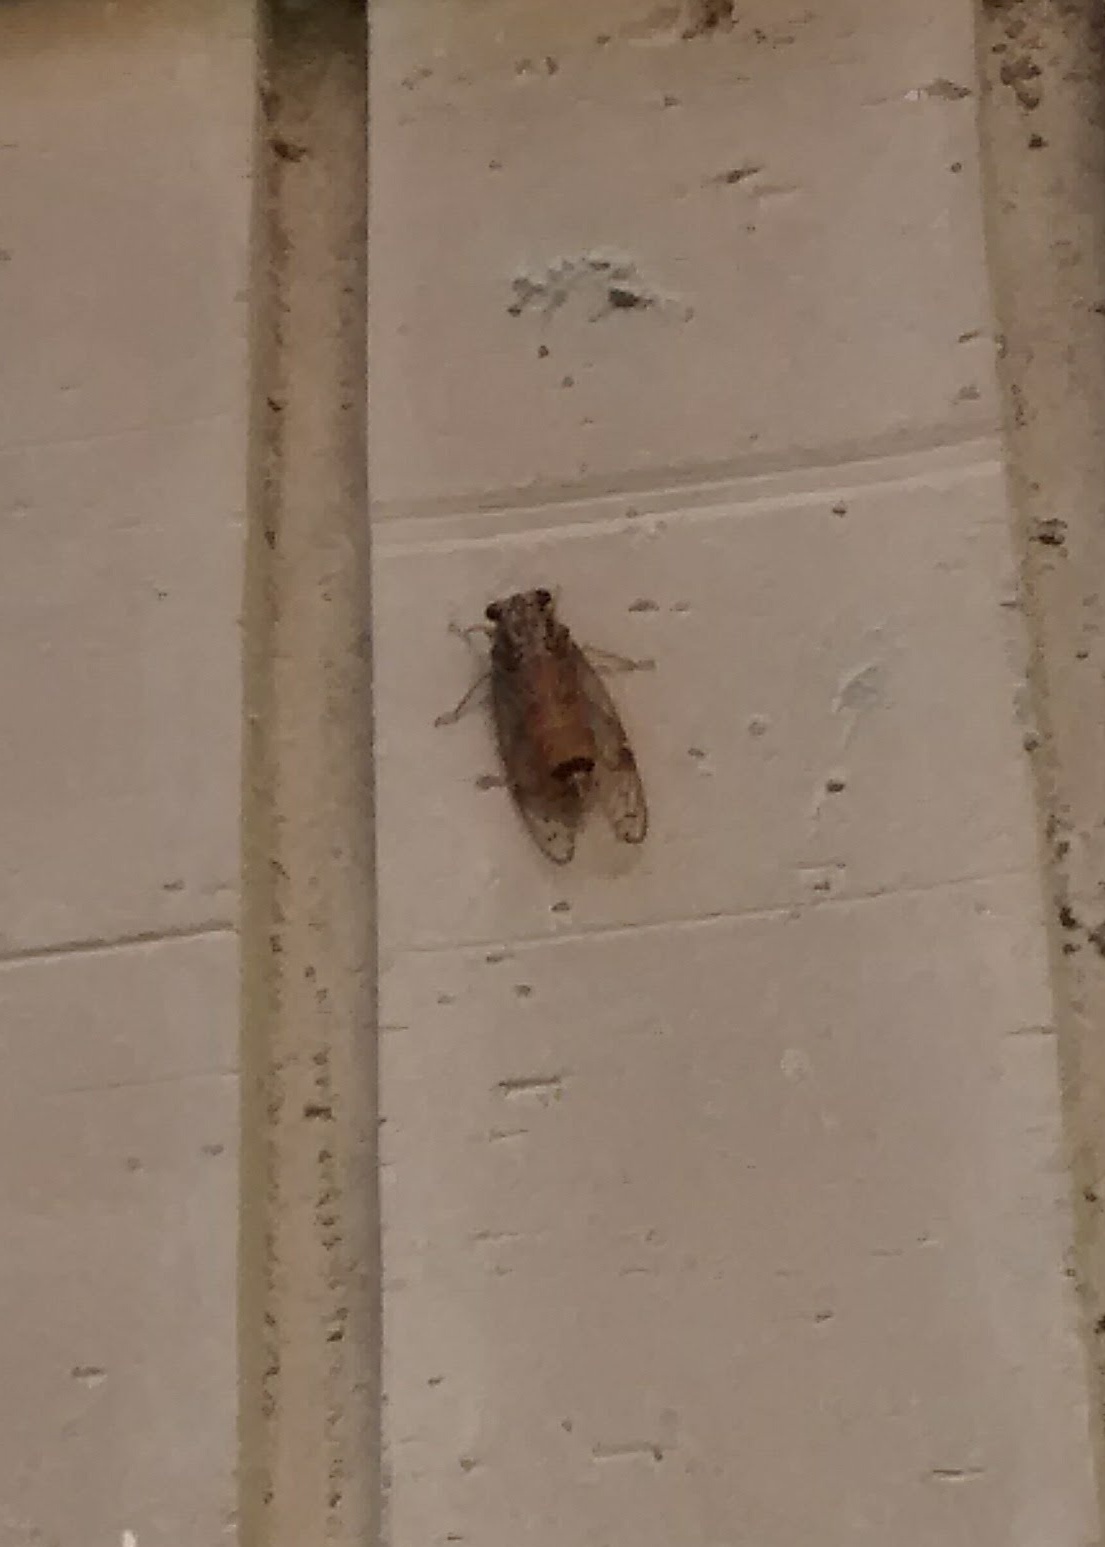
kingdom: Animalia
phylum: Arthropoda
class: Insecta
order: Hemiptera
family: Cicadidae
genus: Neocicada
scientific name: Neocicada chisos
